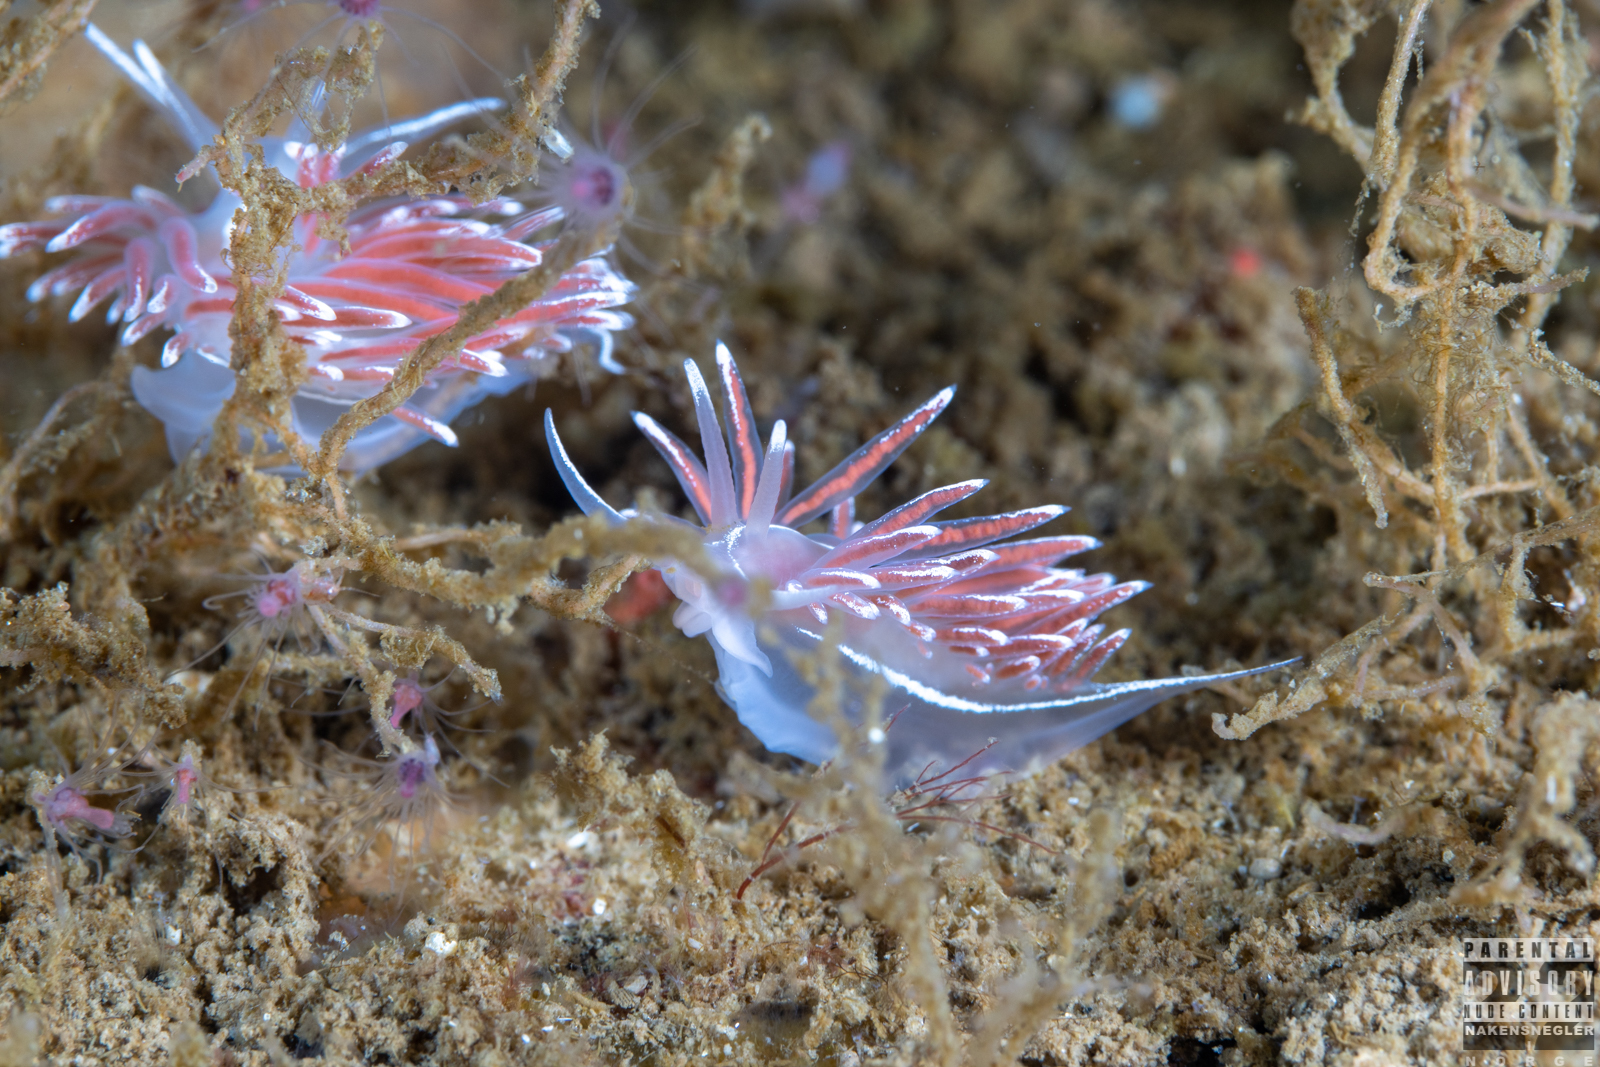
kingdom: Animalia
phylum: Mollusca
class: Gastropoda
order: Nudibranchia
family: Coryphellidae
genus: Coryphella
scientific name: Coryphella lineata
